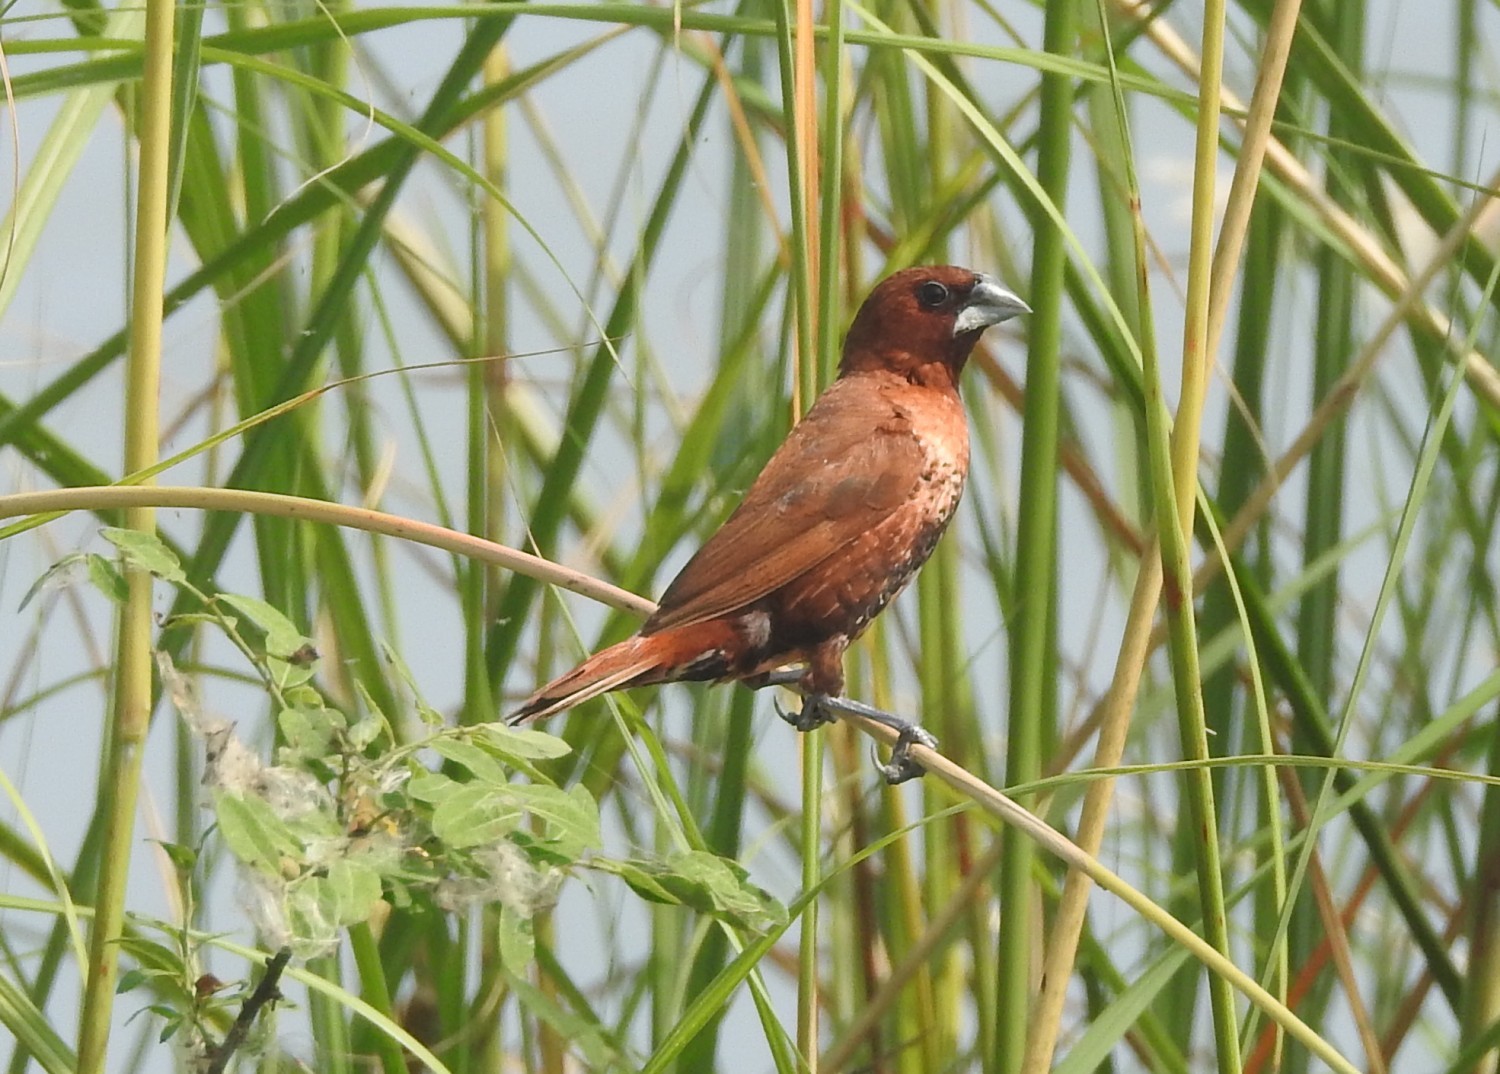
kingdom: Animalia
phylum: Chordata
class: Aves
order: Passeriformes
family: Estrildidae
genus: Lonchura
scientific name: Lonchura punctulata
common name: Scaly-breasted munia
